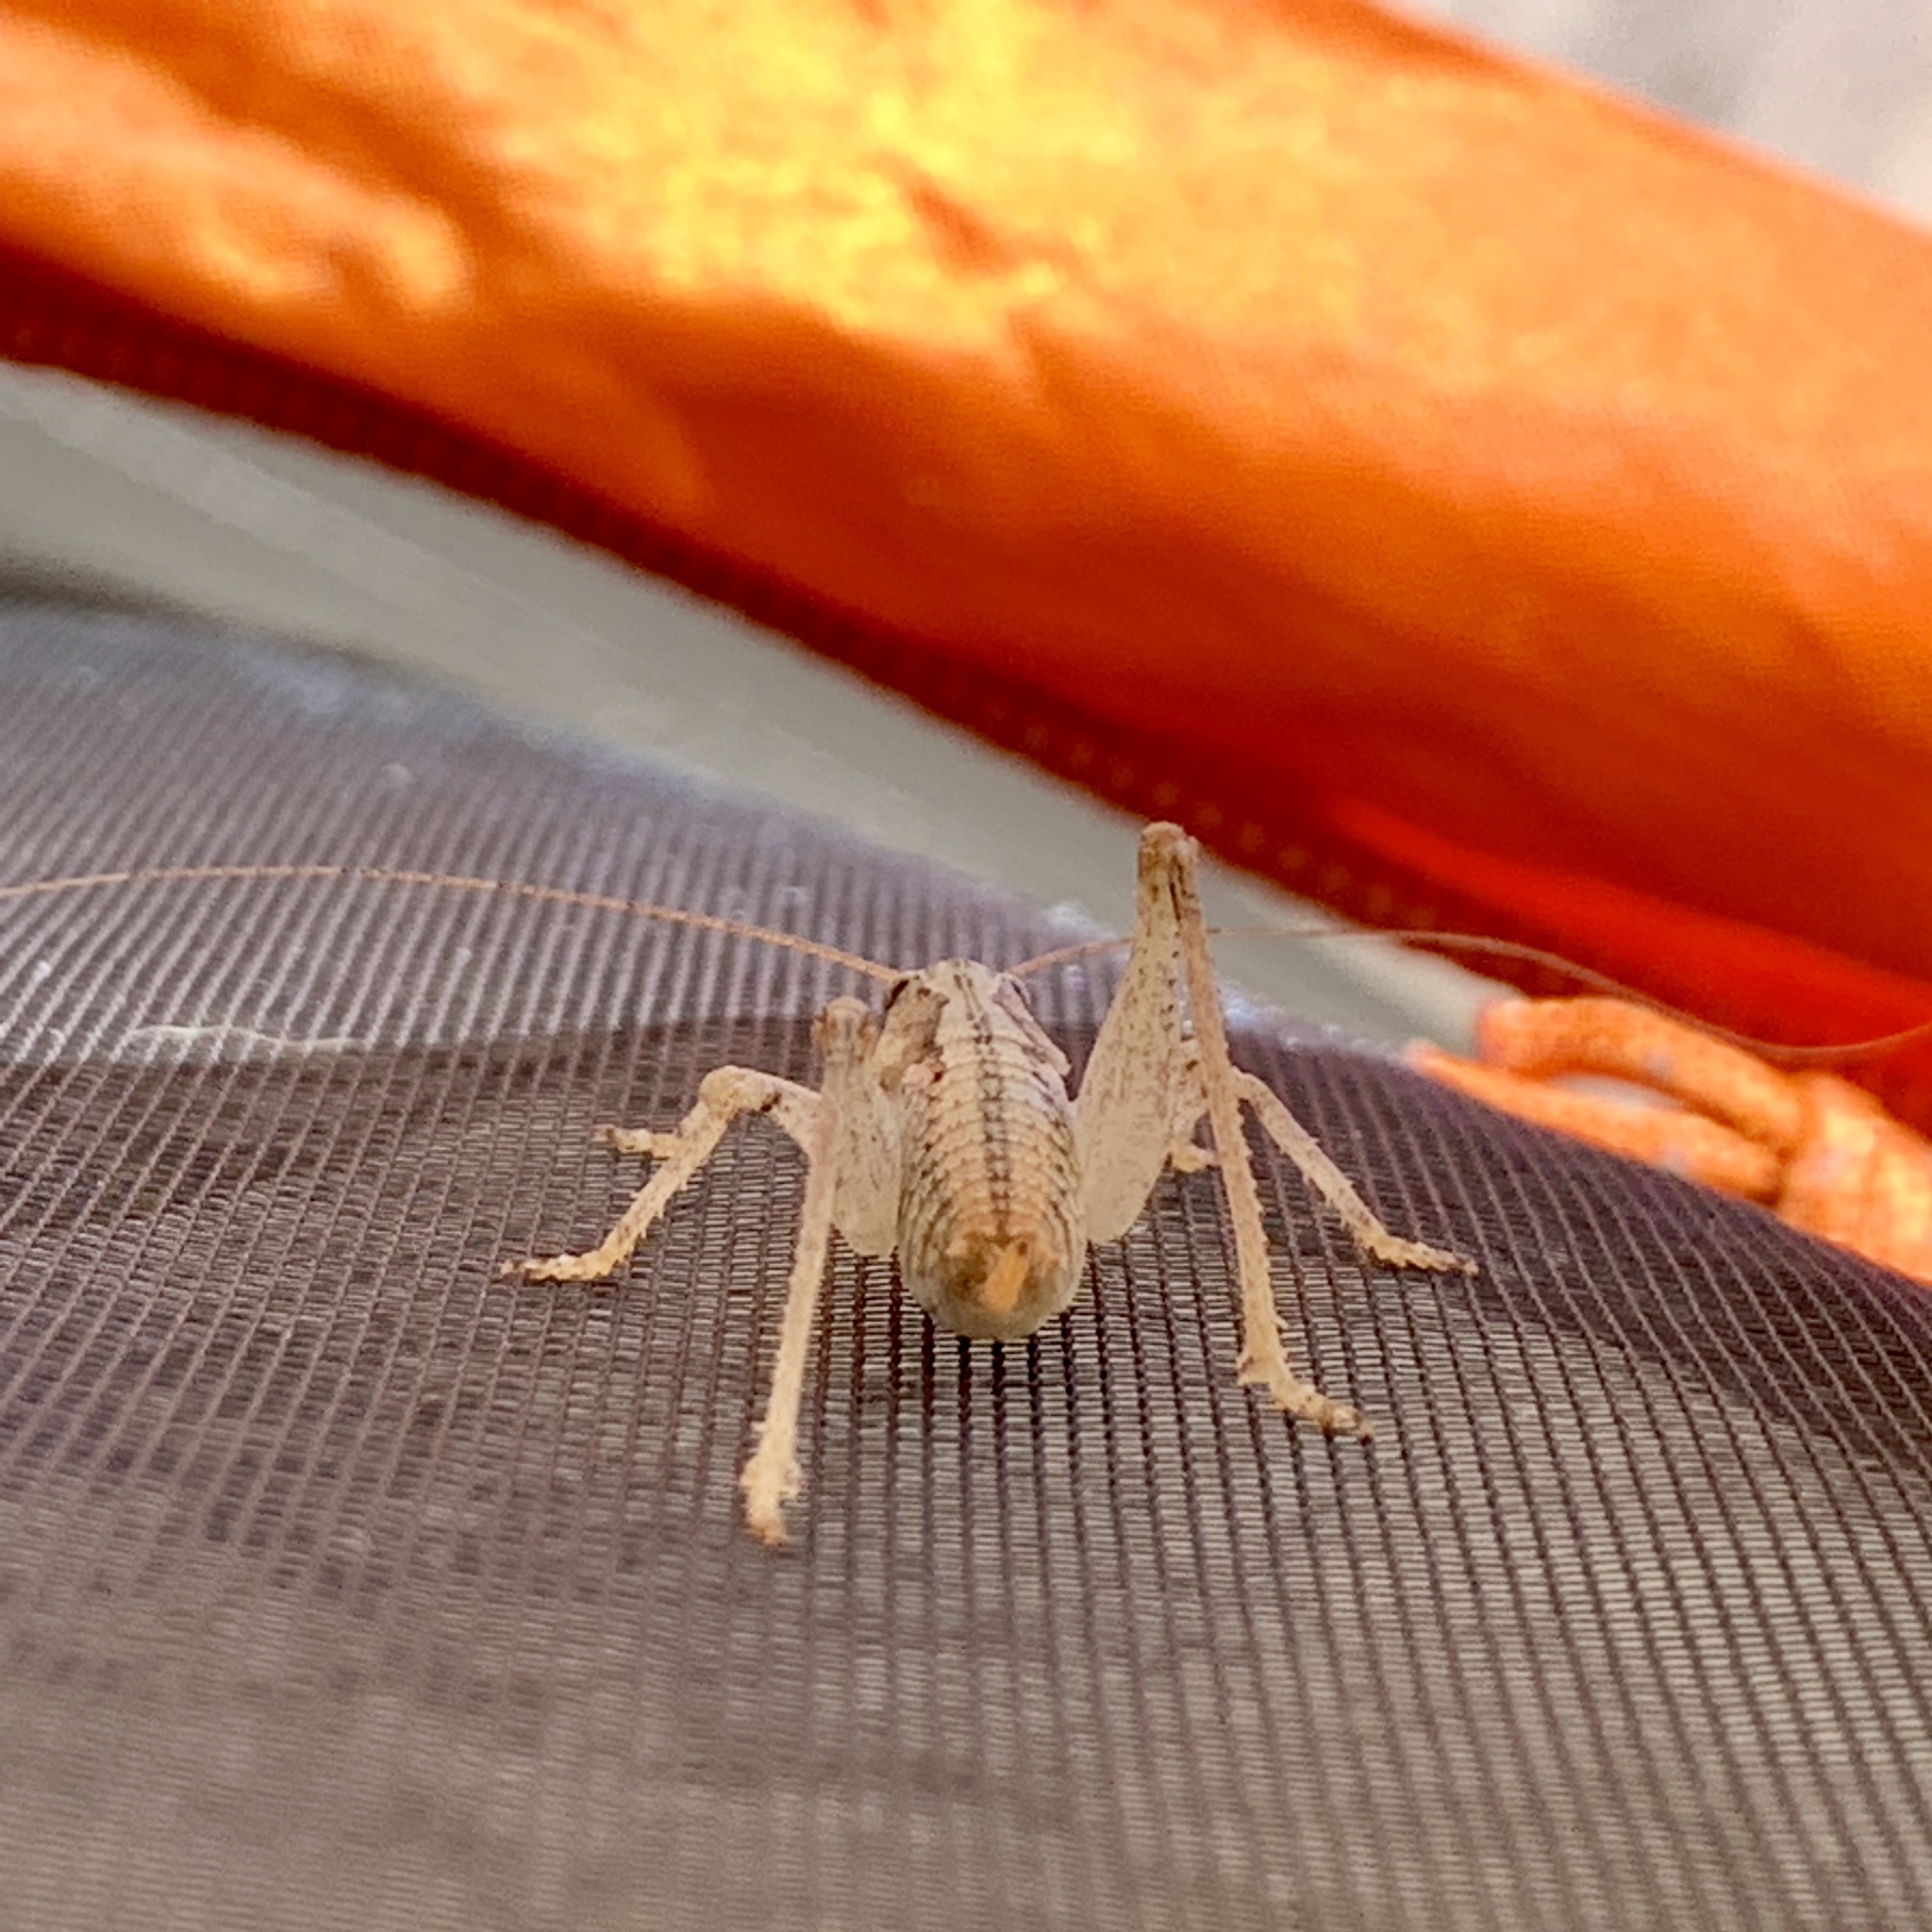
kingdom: Animalia
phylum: Arthropoda
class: Insecta
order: Orthoptera
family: Tettigoniidae
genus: Ateloplus
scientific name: Ateloplus luteus
